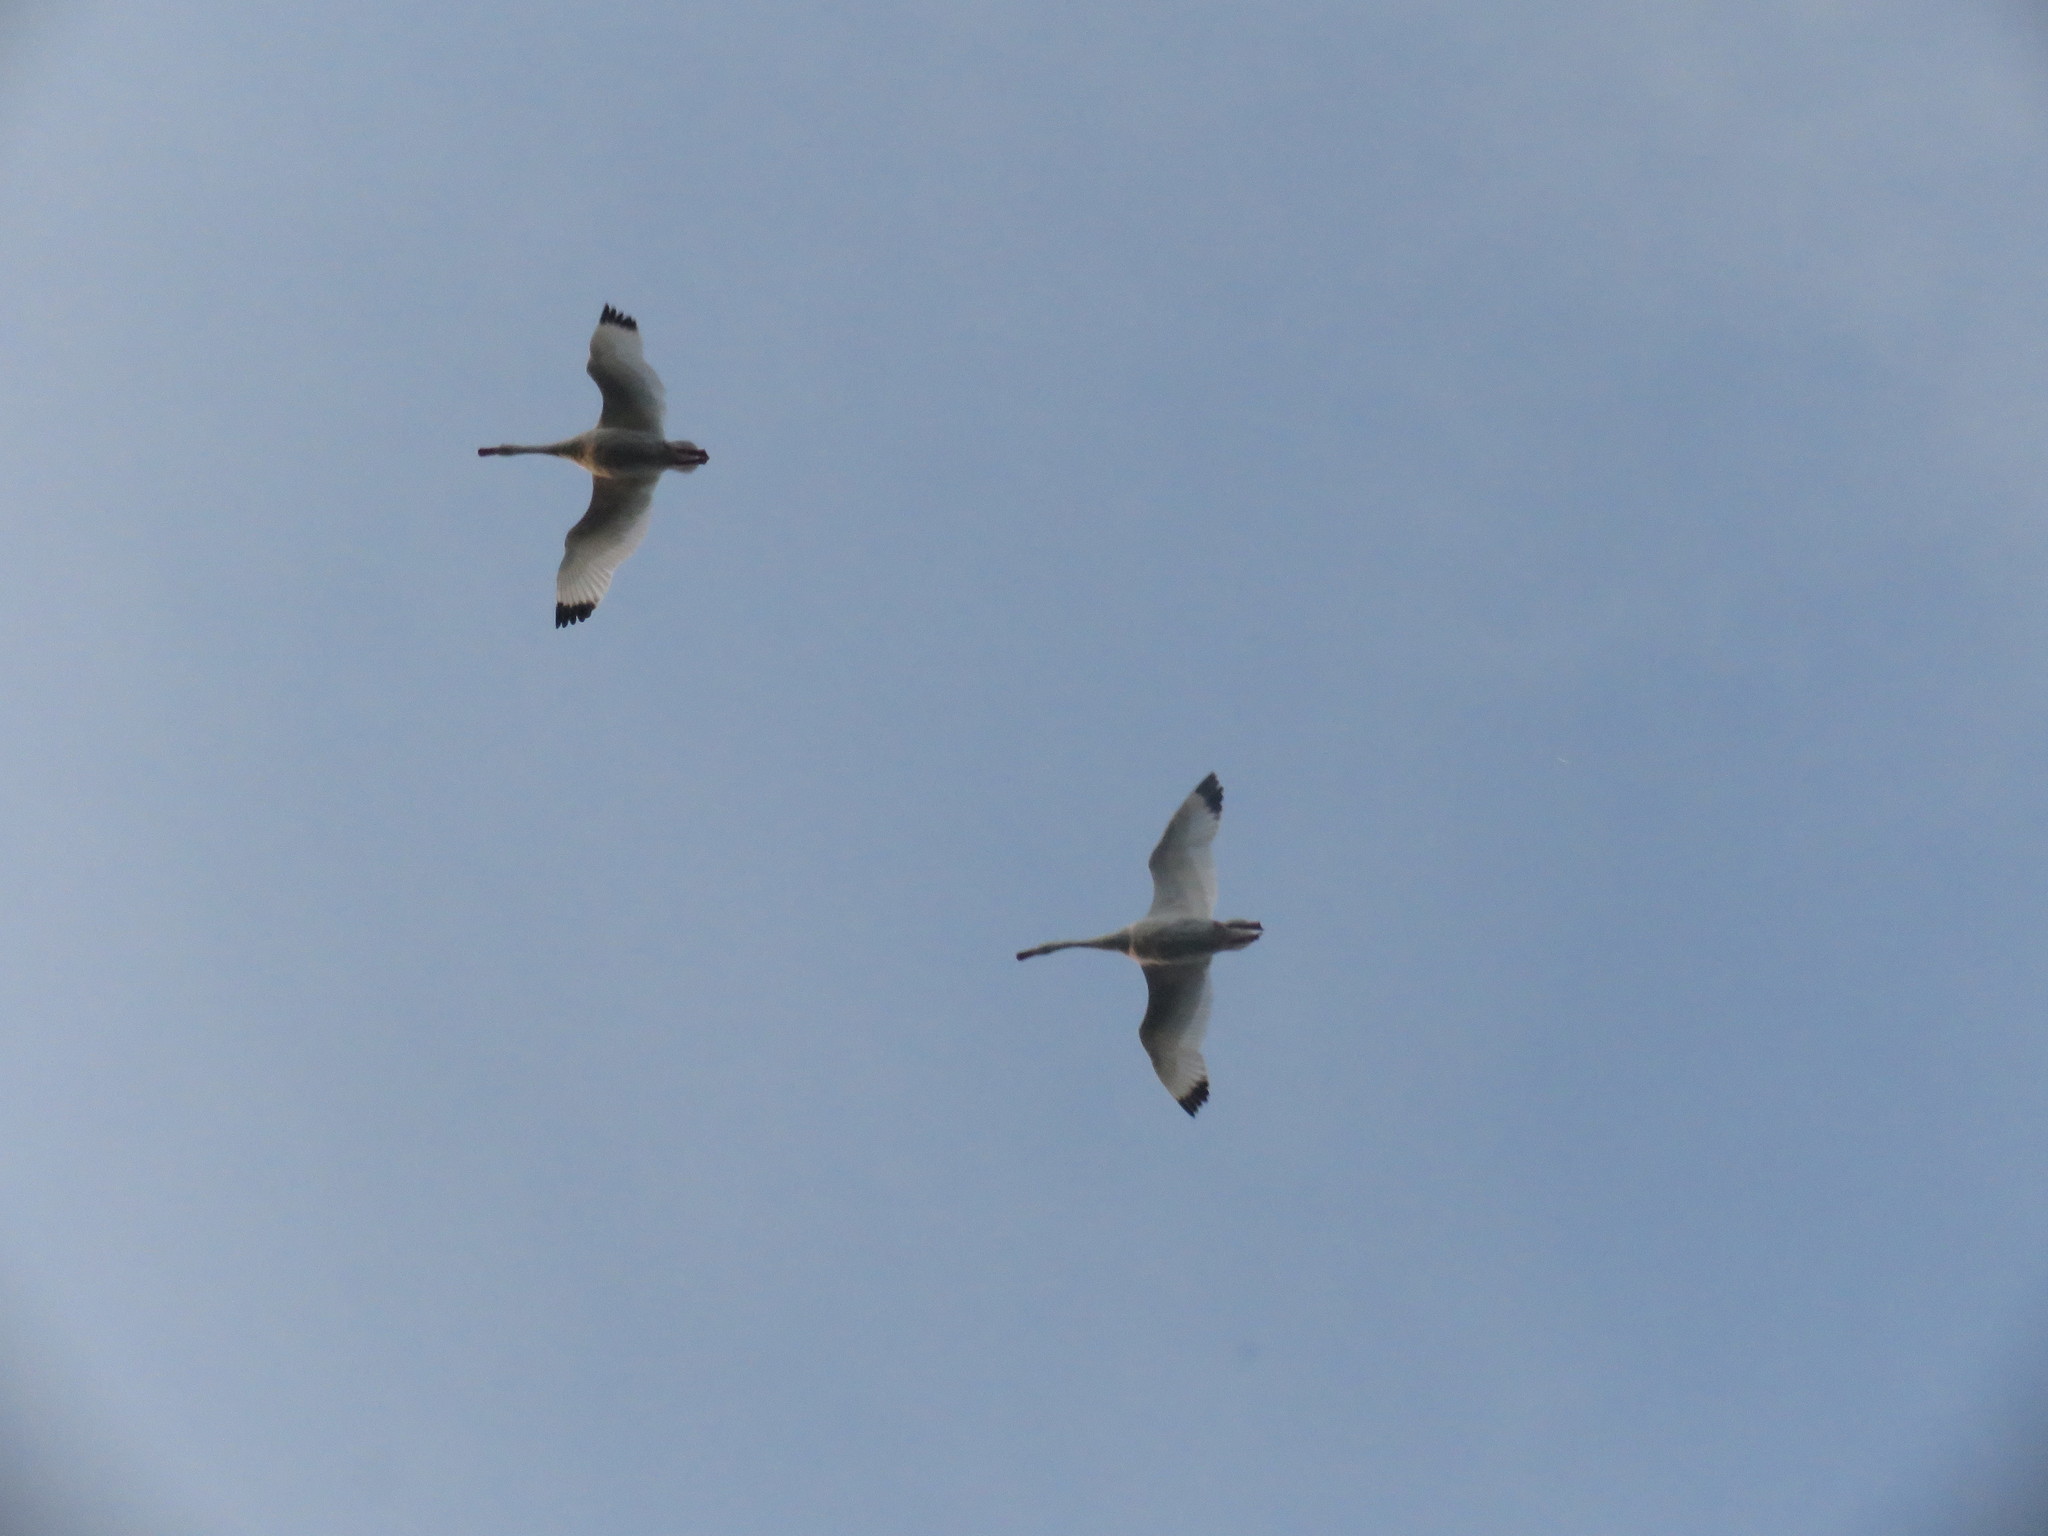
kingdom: Animalia
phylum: Chordata
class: Aves
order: Anseriformes
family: Anatidae
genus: Coscoroba
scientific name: Coscoroba coscoroba
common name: Coscoroba swan
